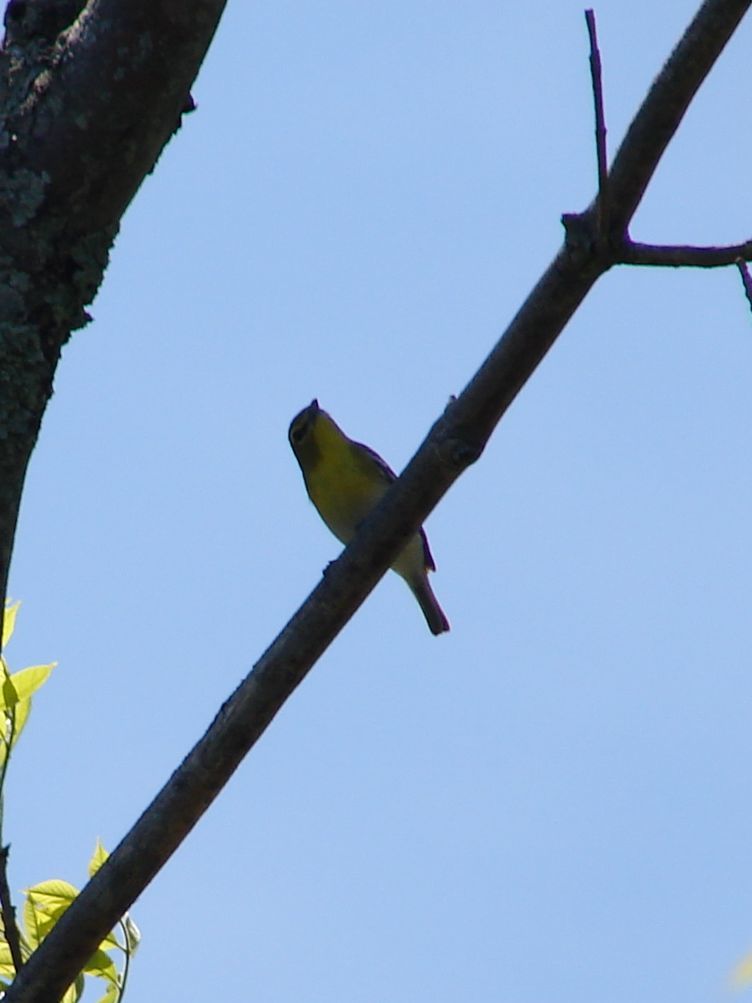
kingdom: Animalia
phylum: Chordata
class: Aves
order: Passeriformes
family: Vireonidae
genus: Vireo
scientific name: Vireo flavifrons
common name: Yellow-throated vireo
